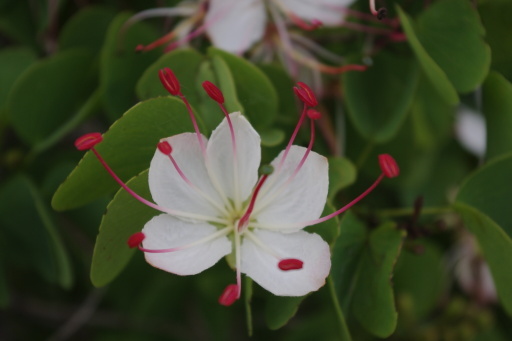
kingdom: Plantae
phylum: Tracheophyta
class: Magnoliopsida
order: Fabales
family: Fabaceae
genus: Lysiphyllum
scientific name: Lysiphyllum hookeri
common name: Hooker's bauhinia
